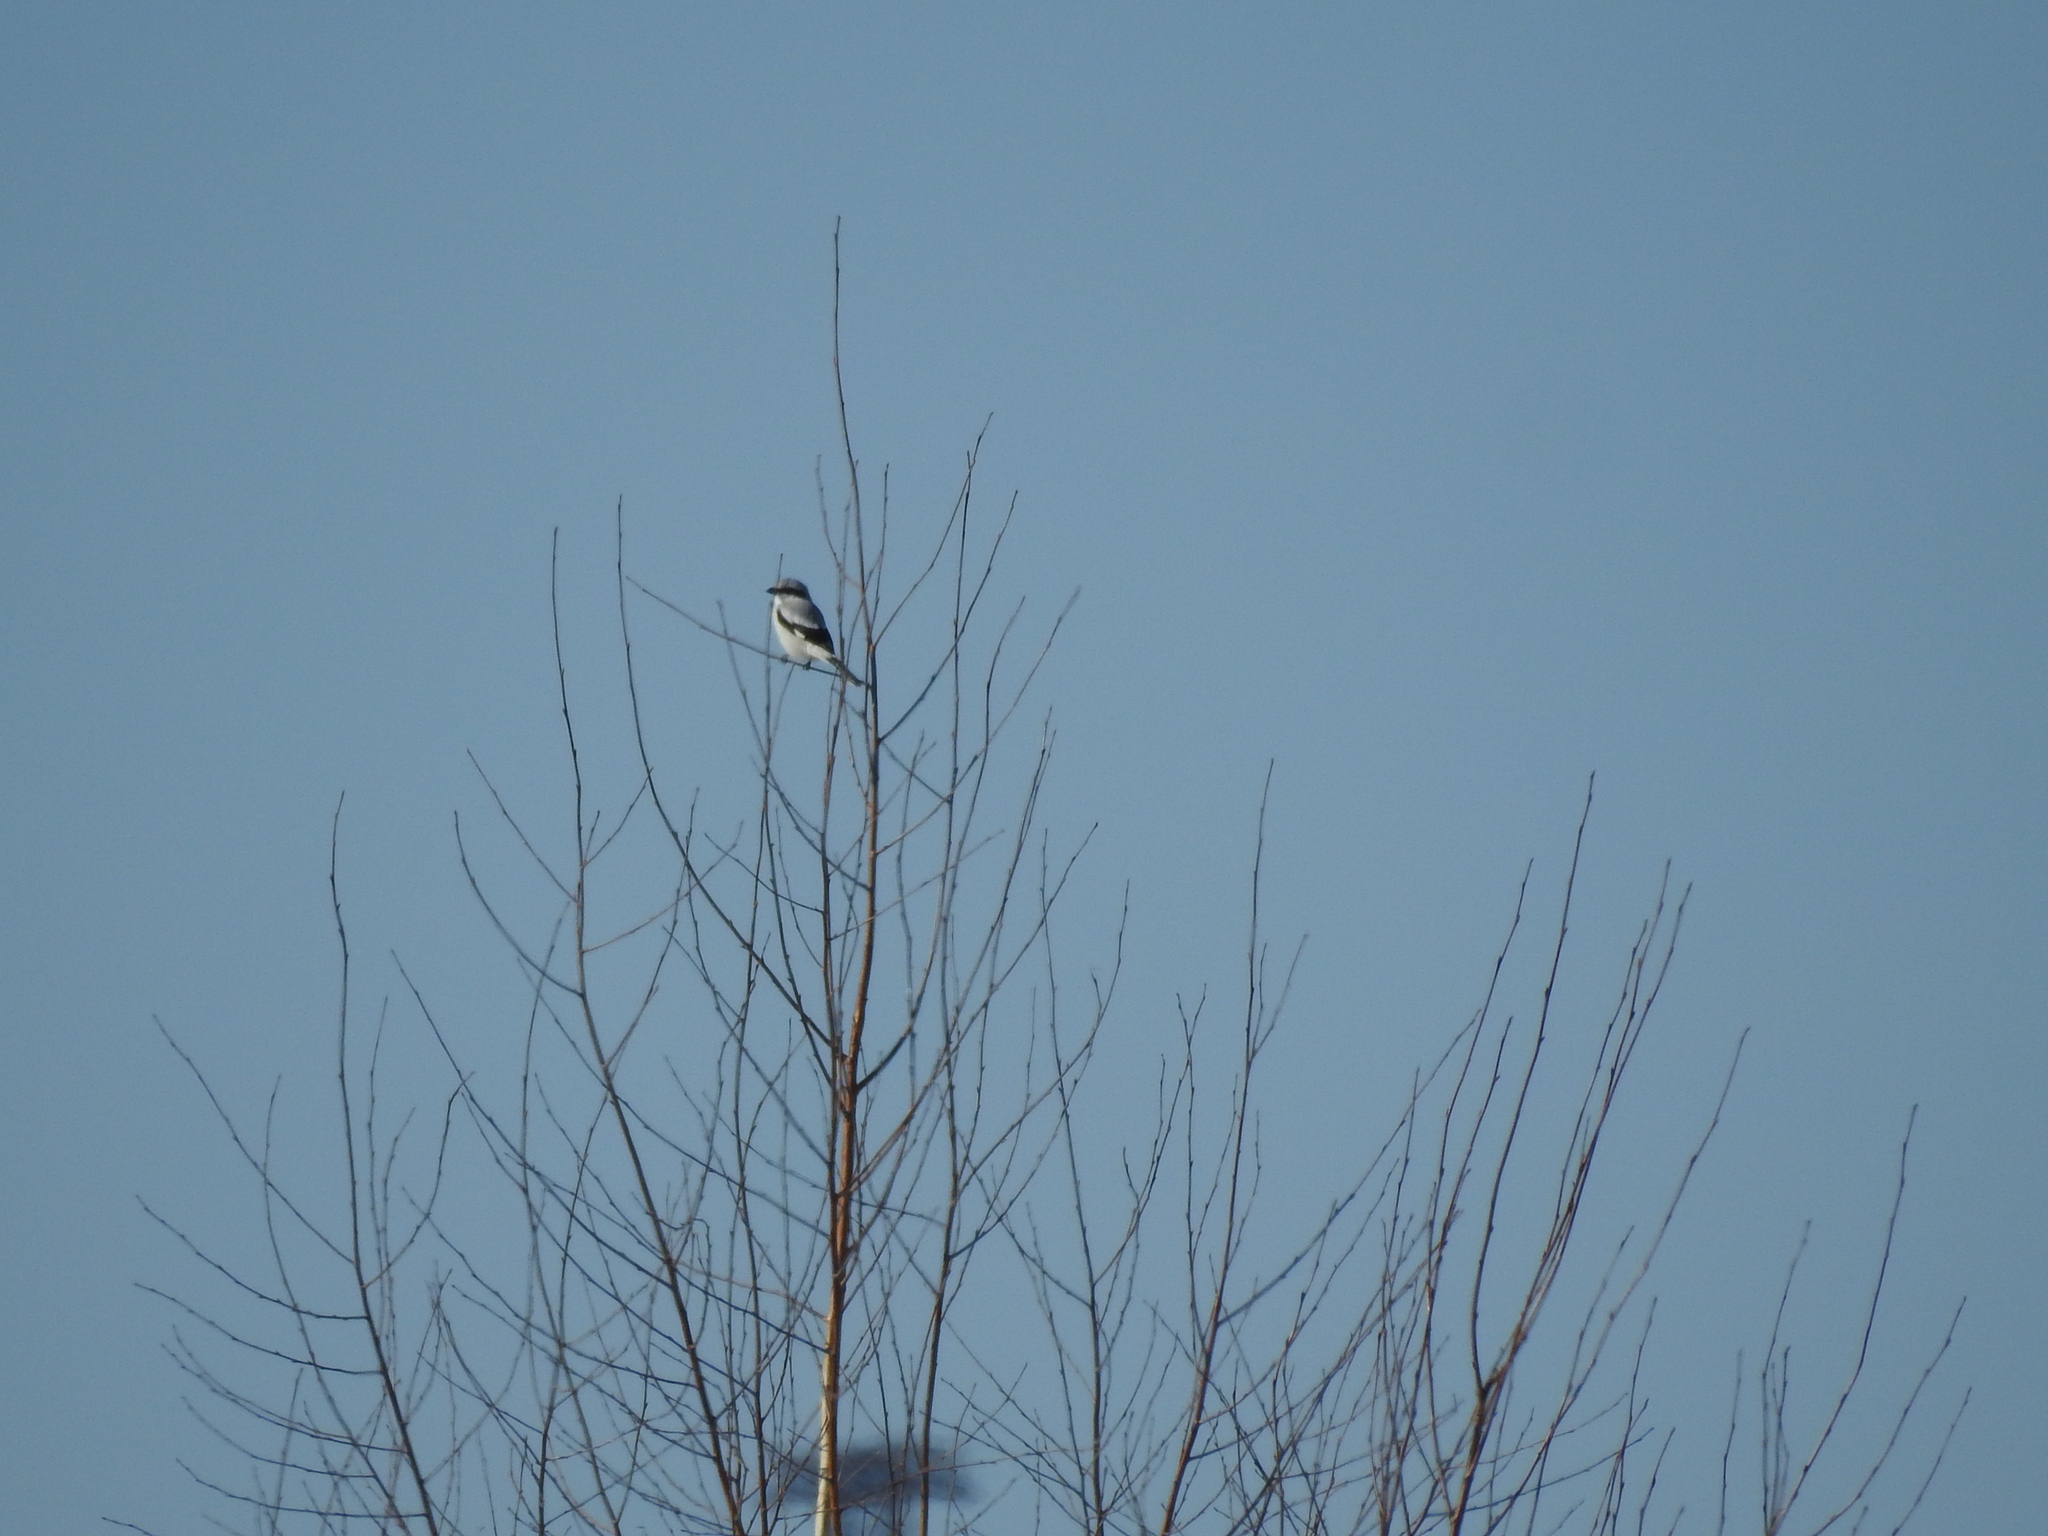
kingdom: Animalia
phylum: Chordata
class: Aves
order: Passeriformes
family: Laniidae
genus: Lanius
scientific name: Lanius excubitor
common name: Great grey shrike
